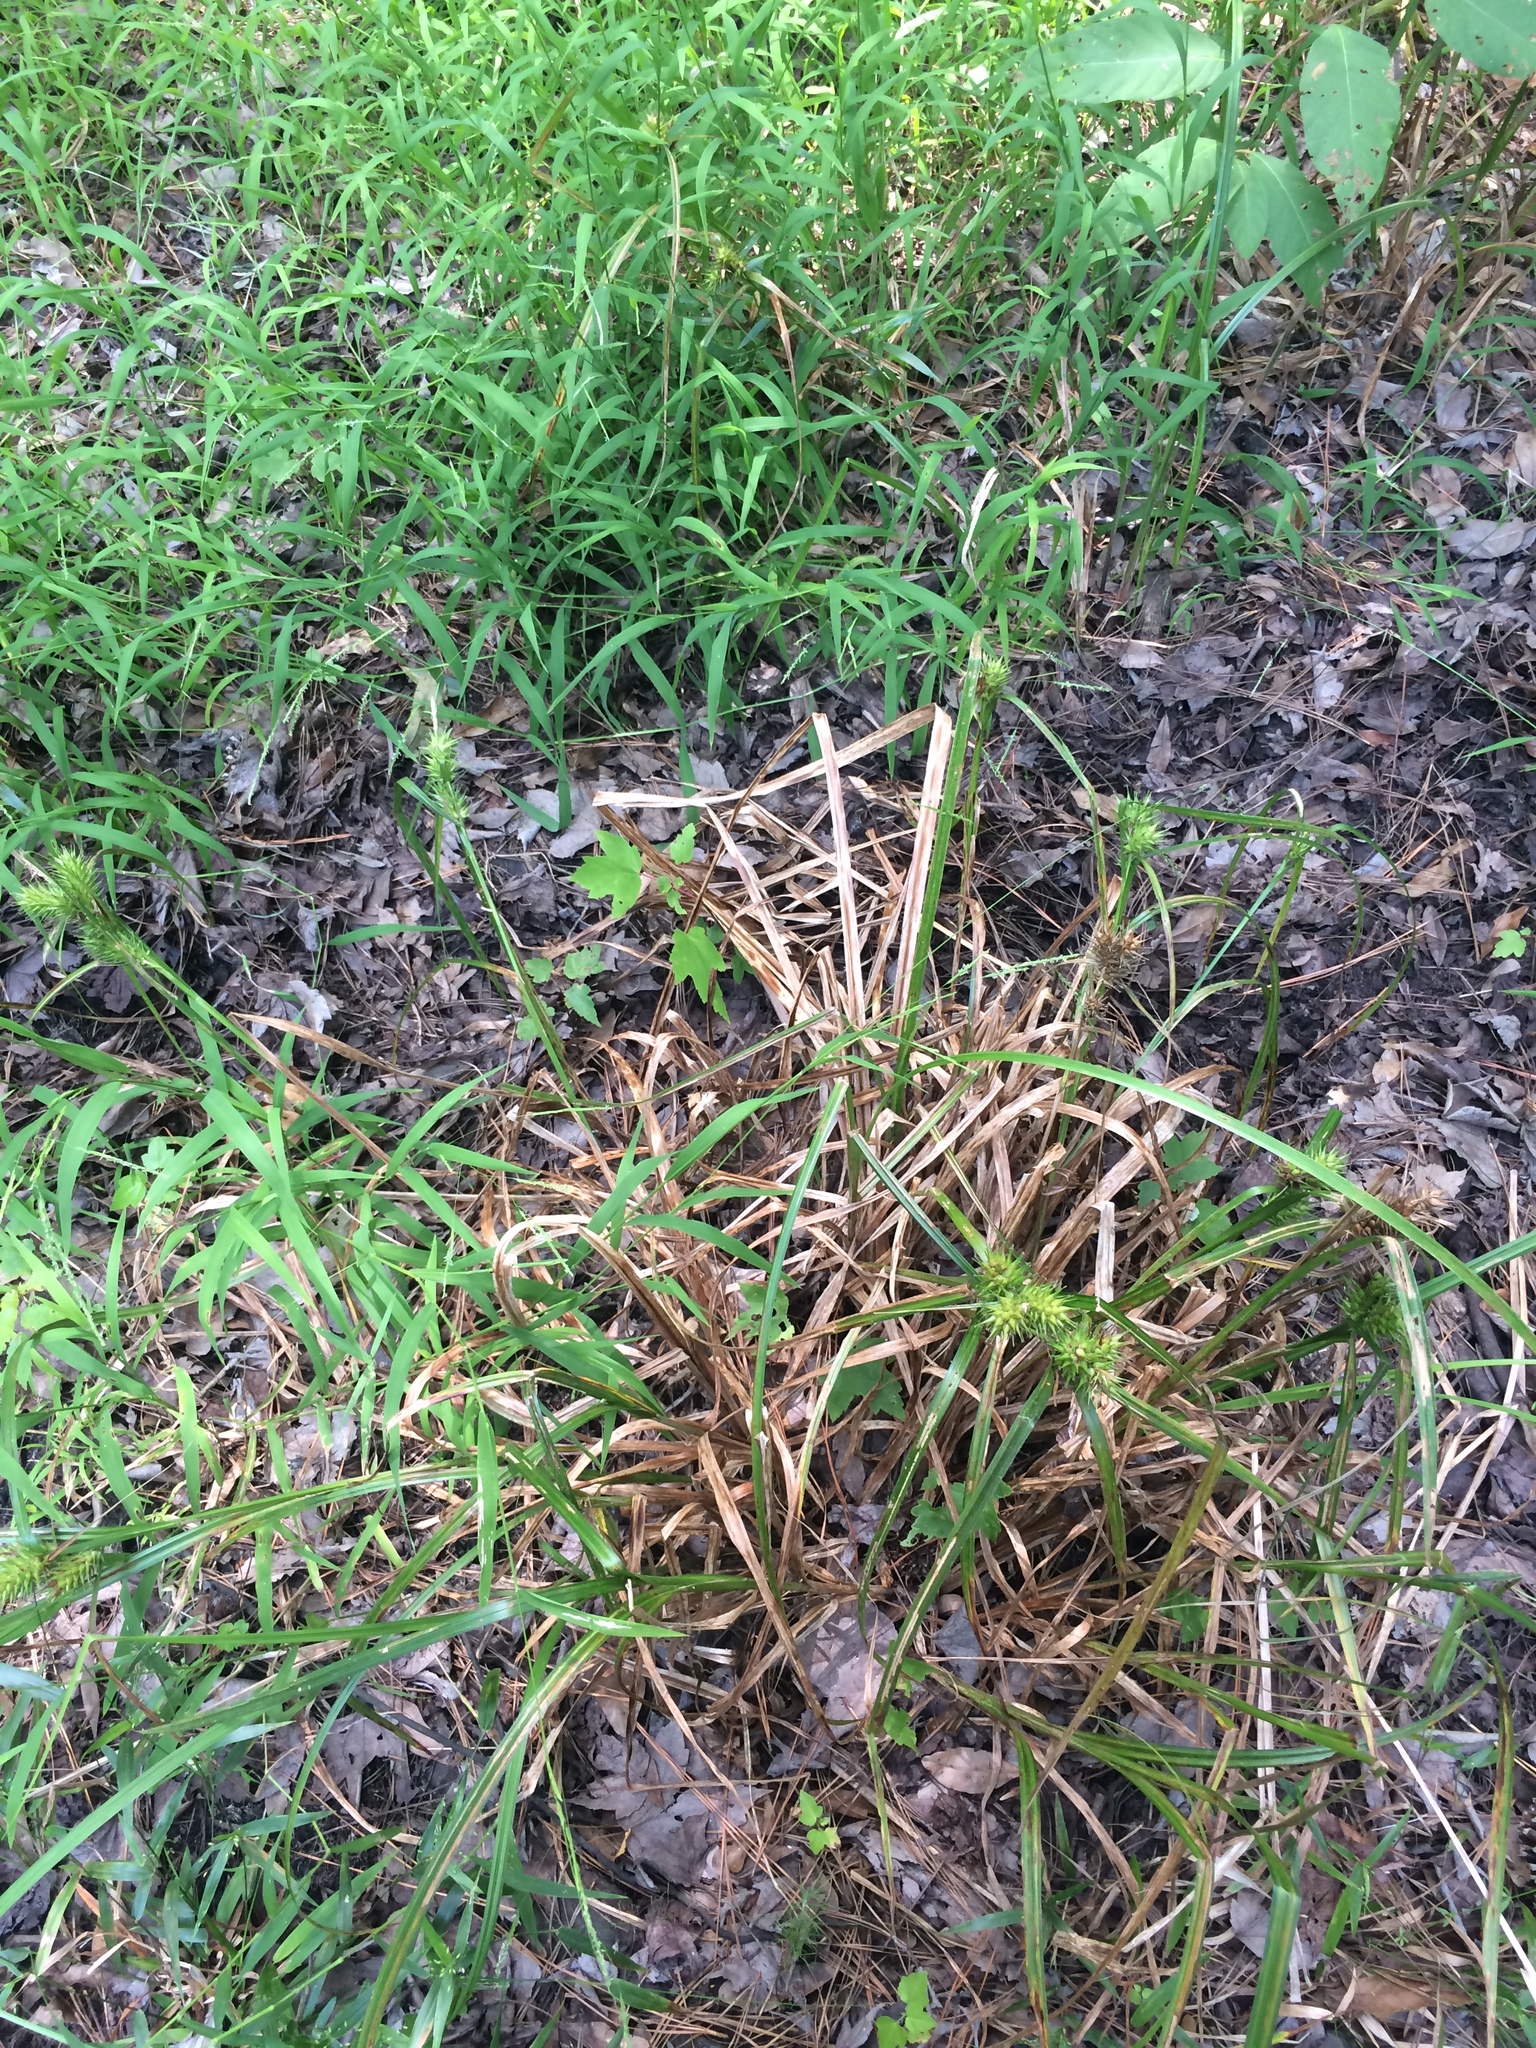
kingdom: Plantae
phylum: Tracheophyta
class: Liliopsida
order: Poales
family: Cyperaceae
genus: Carex
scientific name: Carex lupulina
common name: Hop sedge
